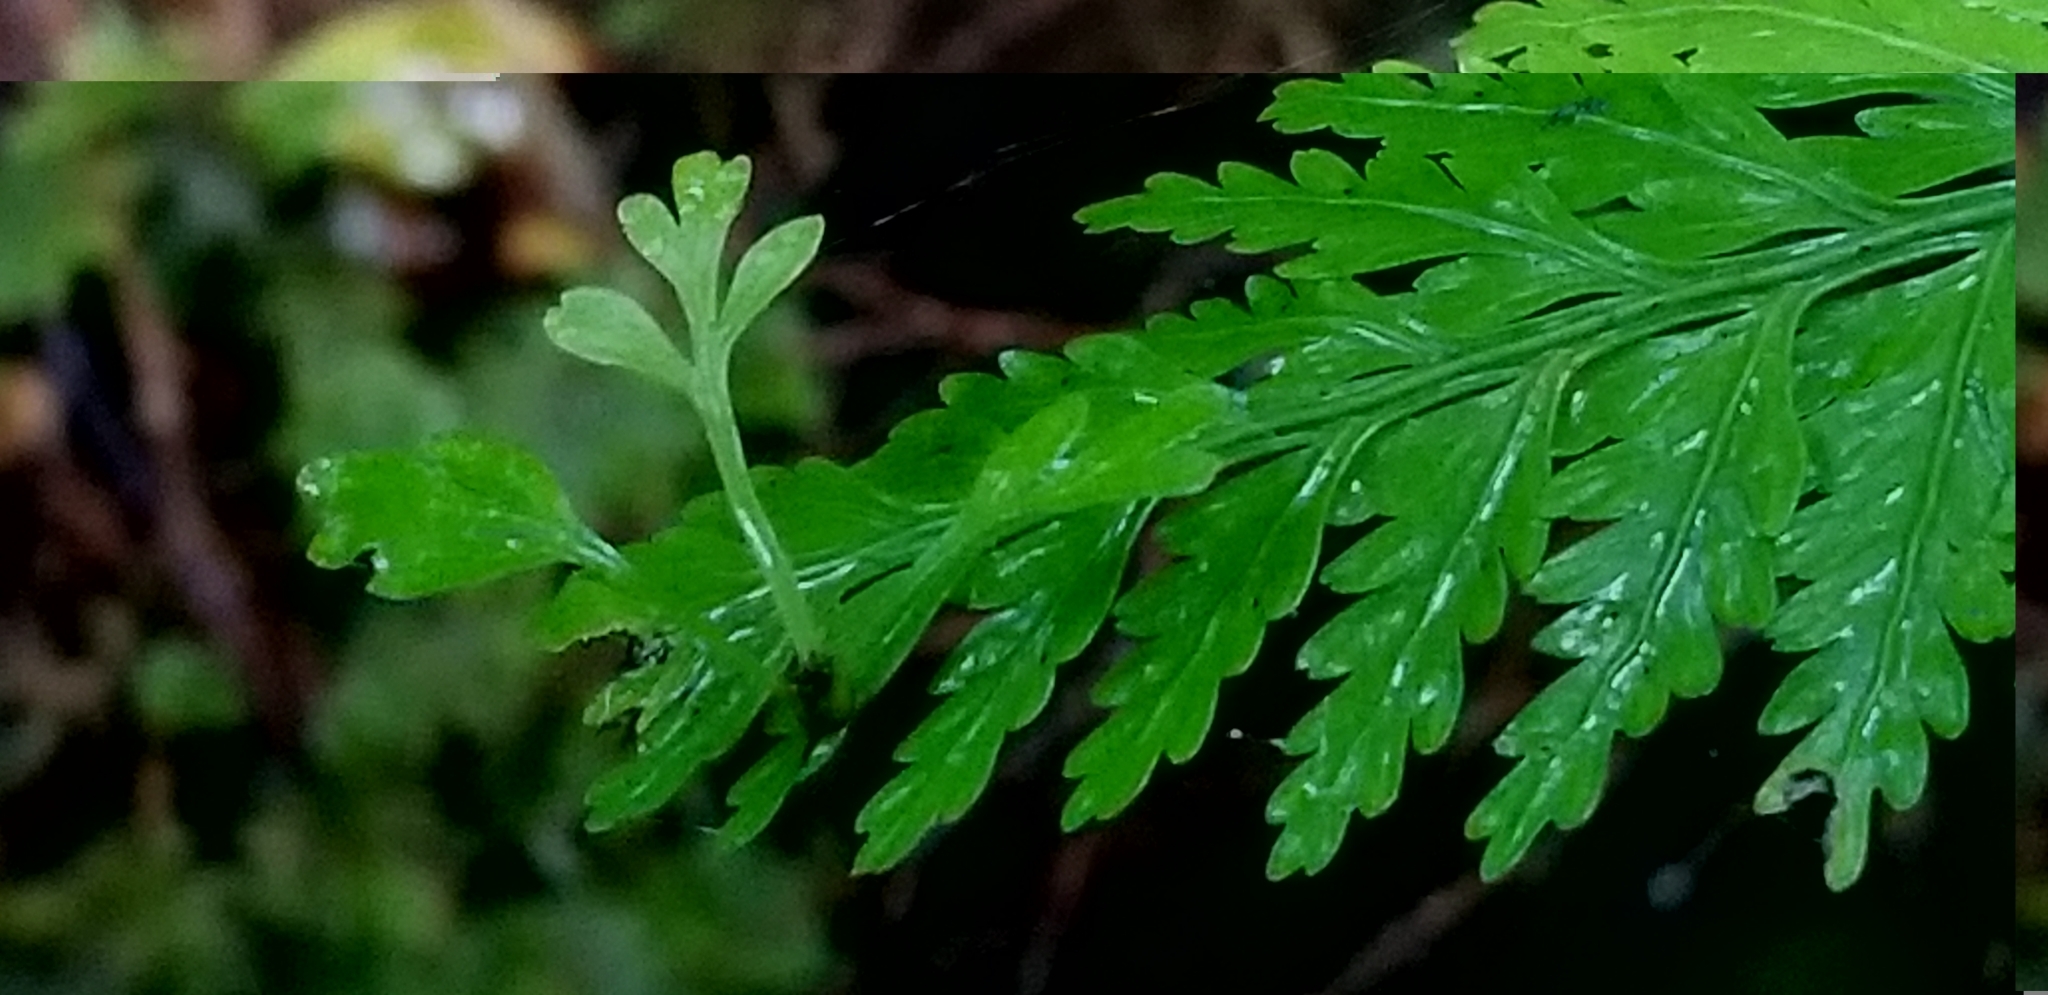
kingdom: Plantae
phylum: Tracheophyta
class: Polypodiopsida
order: Polypodiales
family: Aspleniaceae
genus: Asplenium
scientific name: Asplenium bulbiferum
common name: Mother fern
